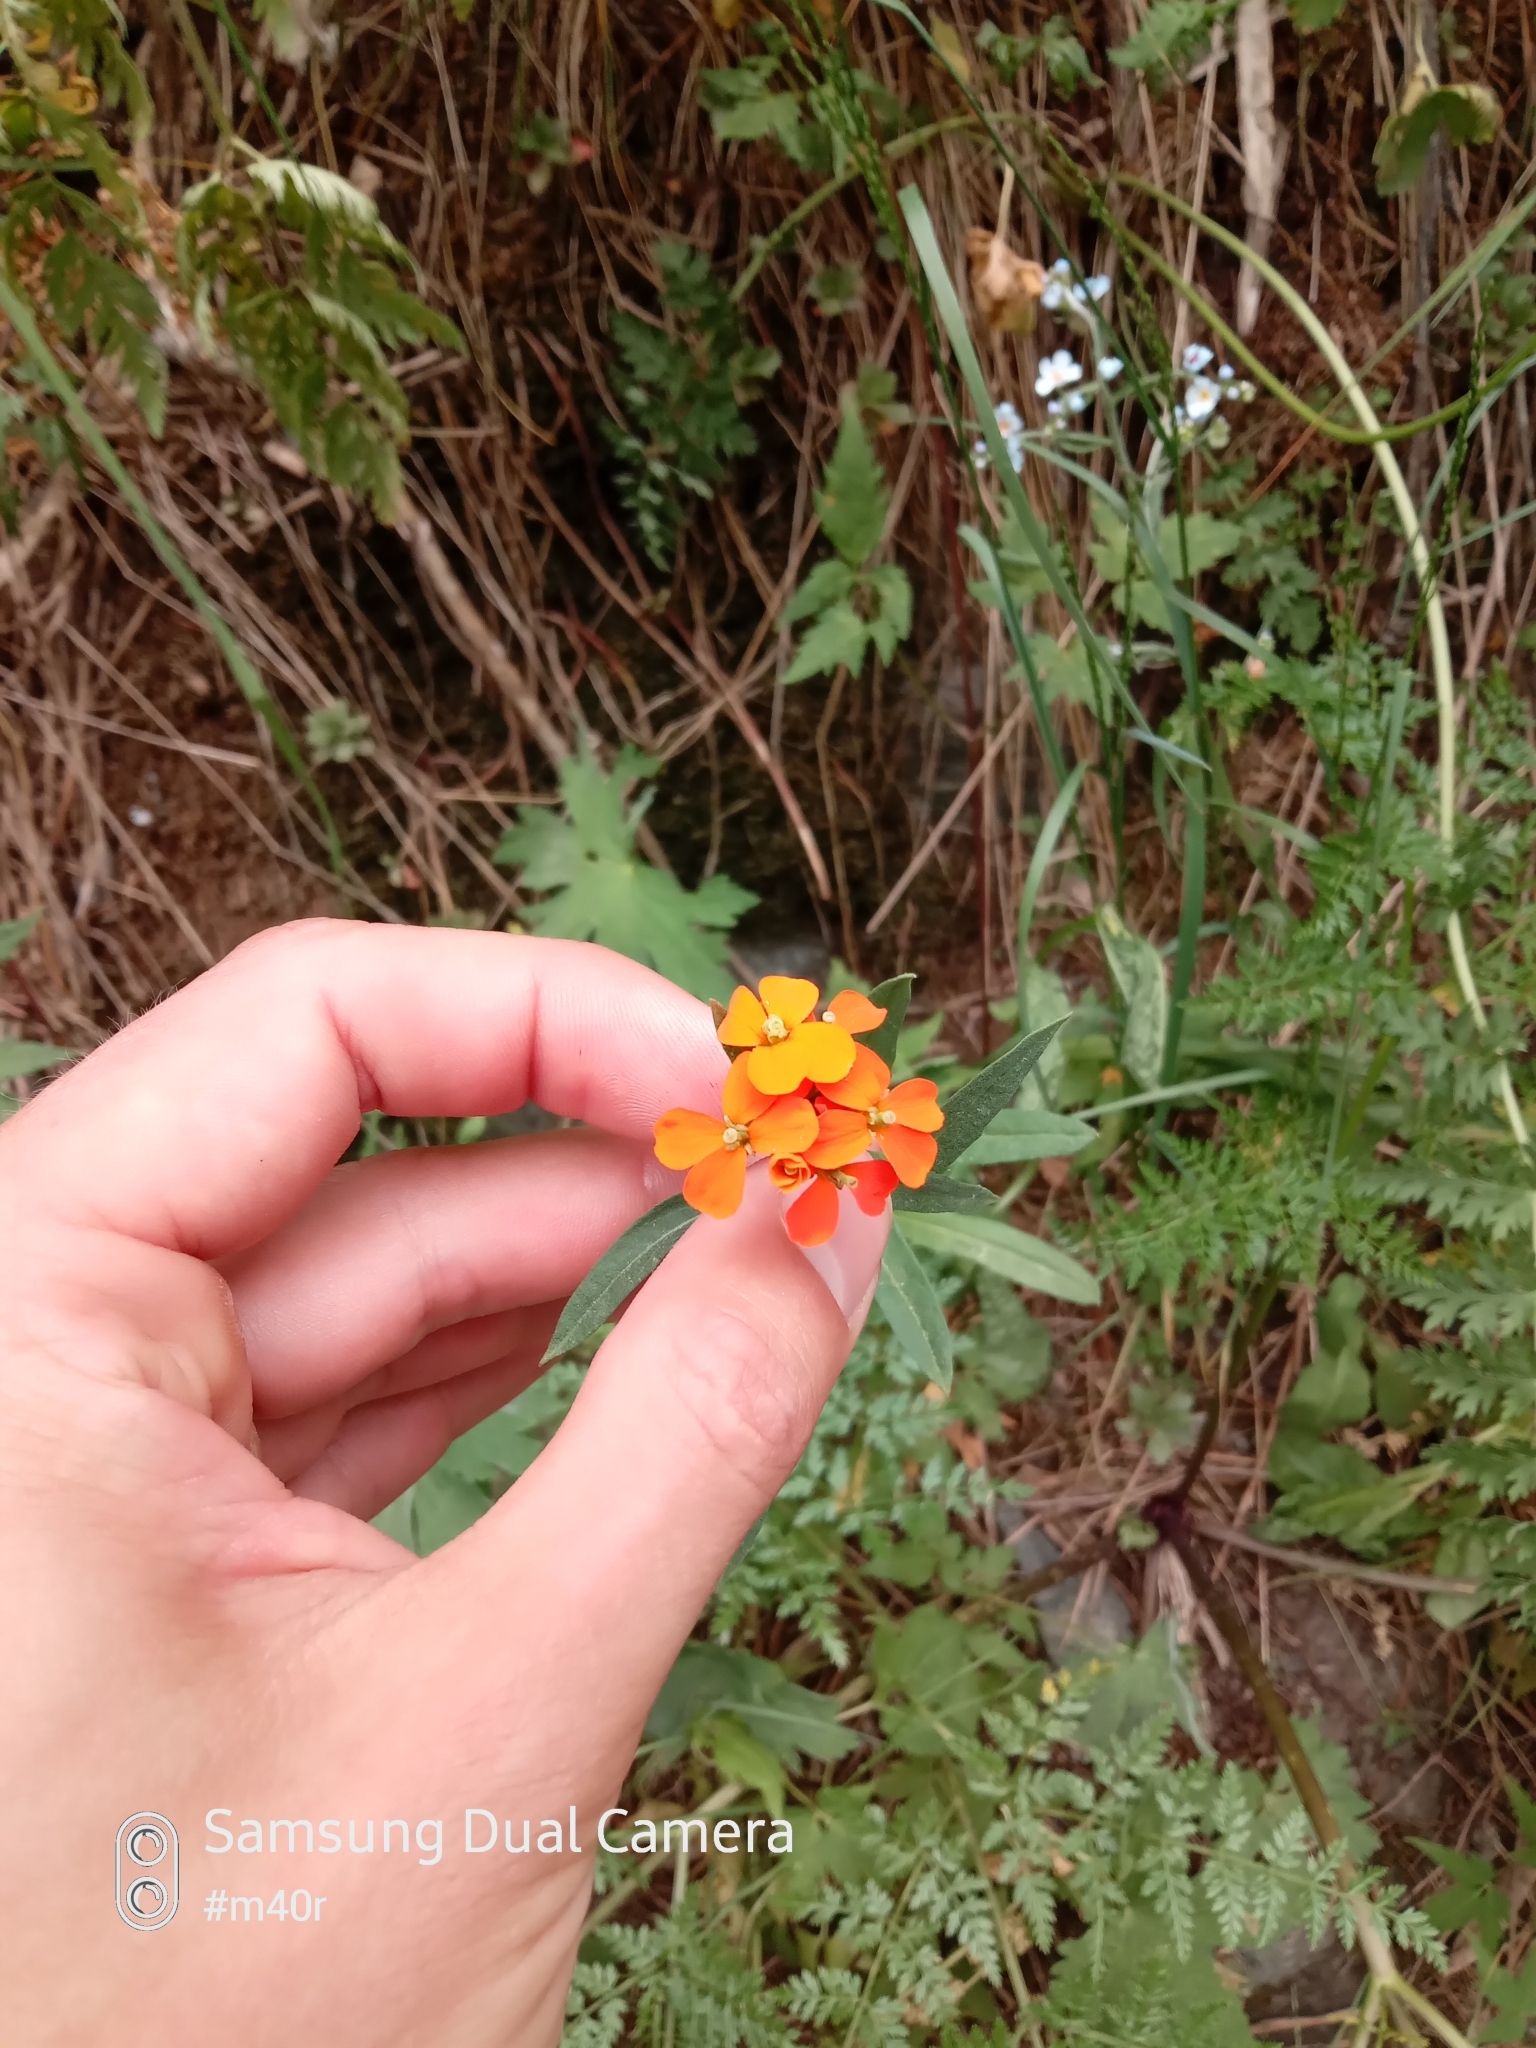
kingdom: Plantae
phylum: Tracheophyta
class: Magnoliopsida
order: Brassicales
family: Brassicaceae
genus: Erysimum
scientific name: Erysimum croceum
